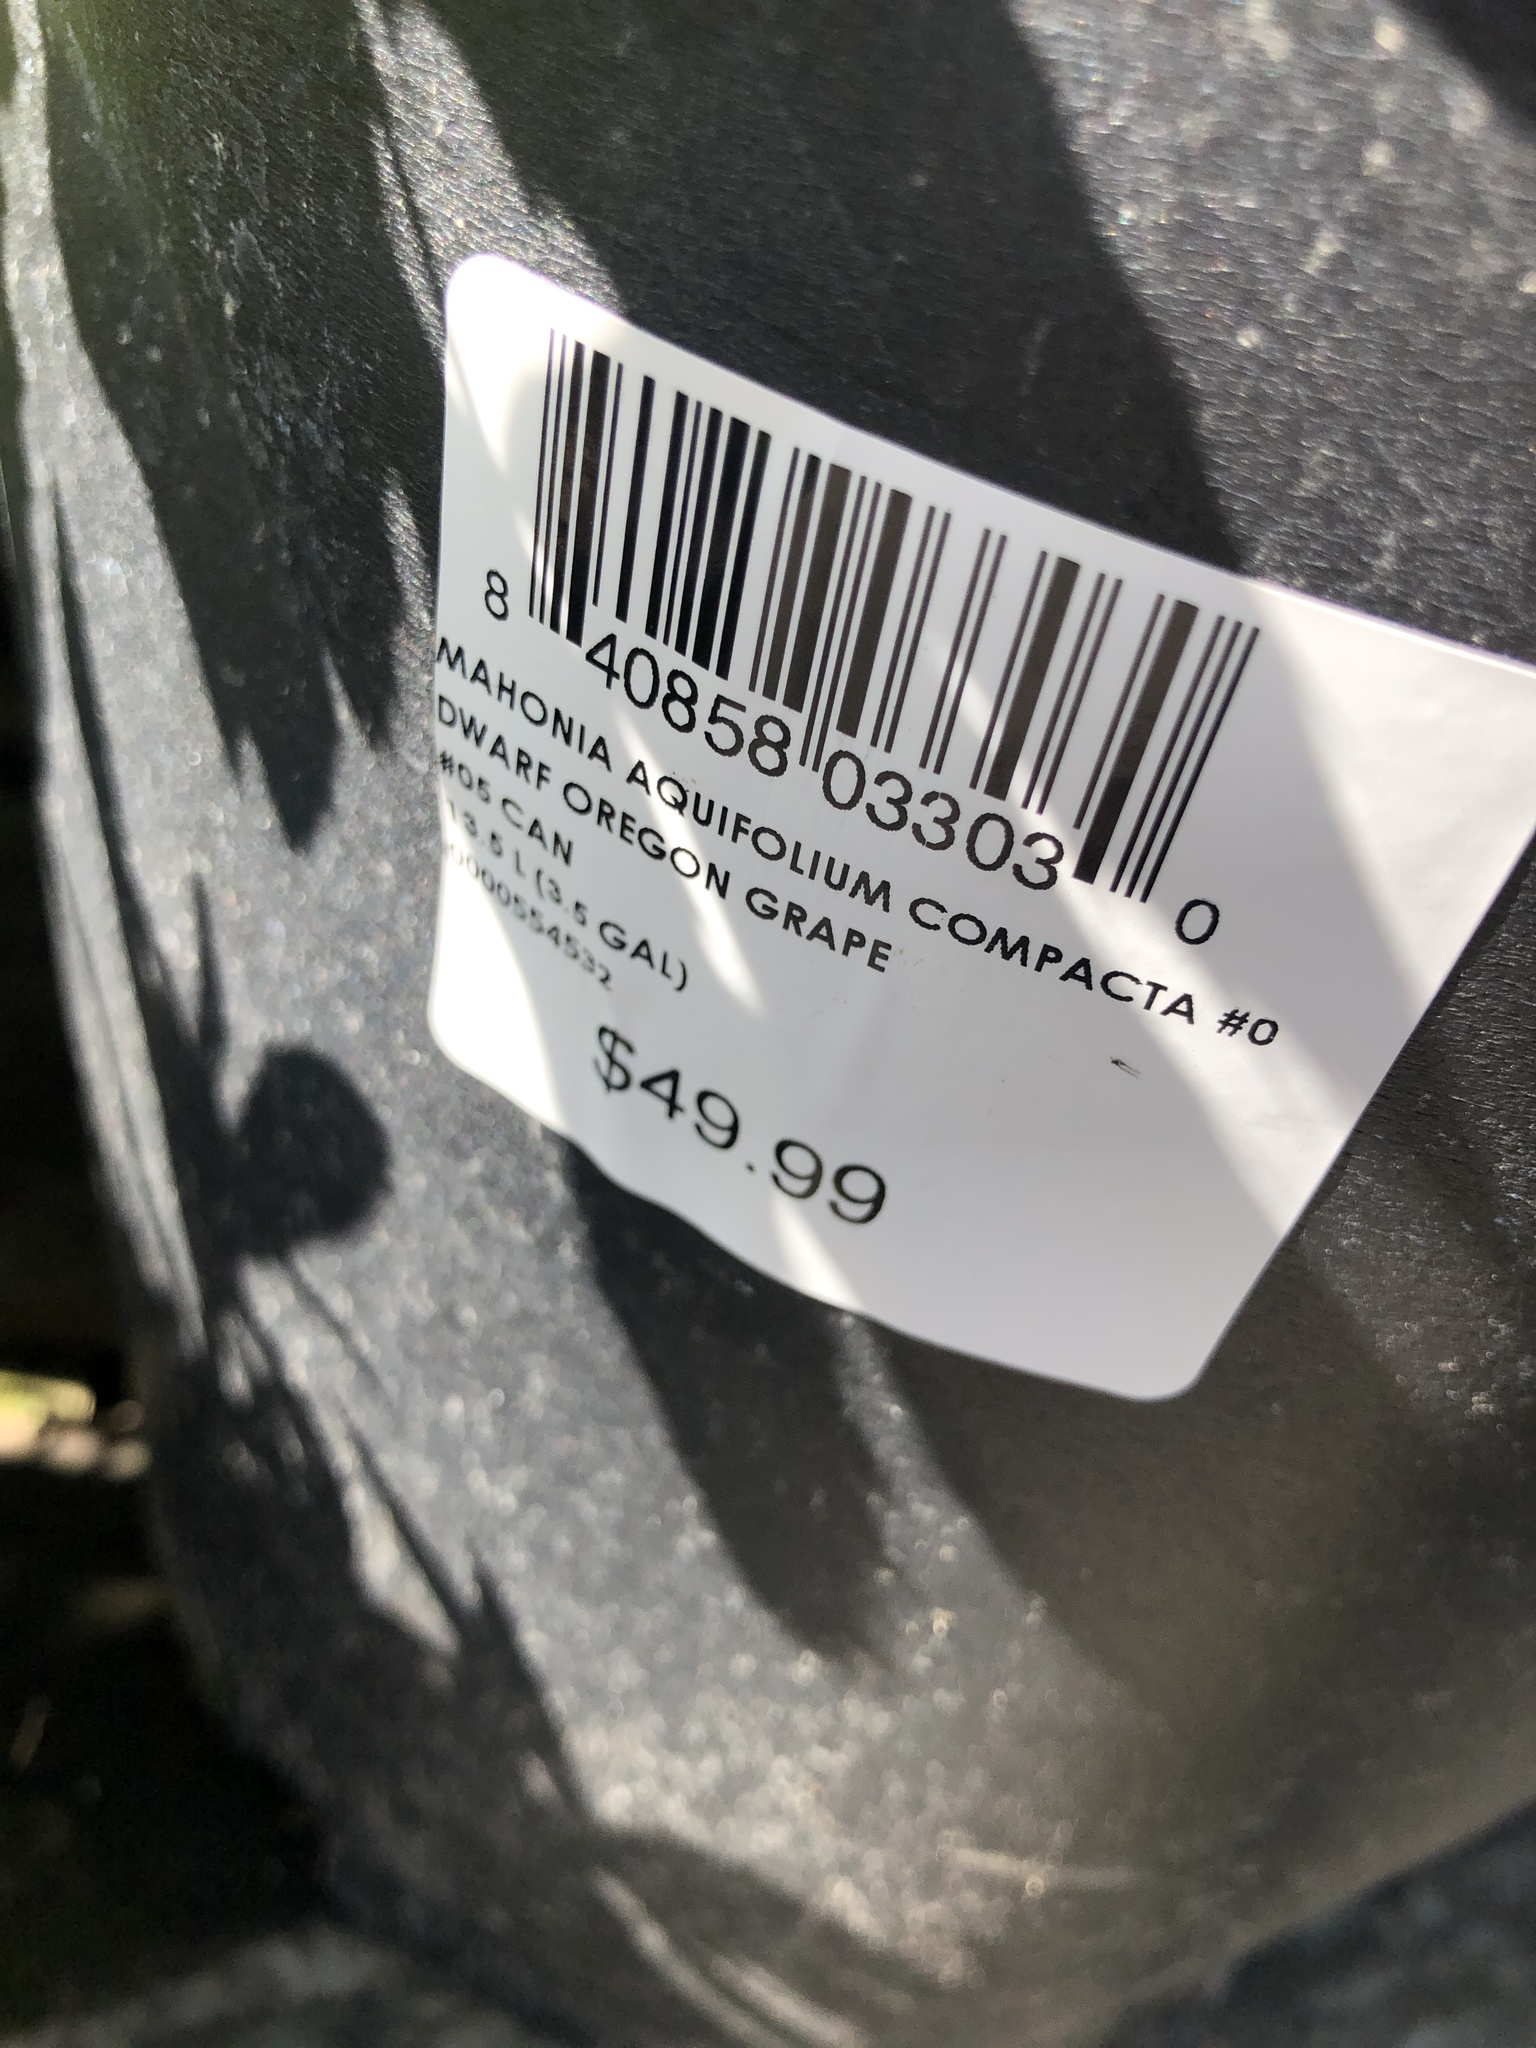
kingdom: Fungi
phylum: Basidiomycota
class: Pucciniomycetes
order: Pucciniales
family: Pucciniaceae
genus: Cumminsiella
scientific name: Cumminsiella mirabilissima
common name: Mahonia rust
